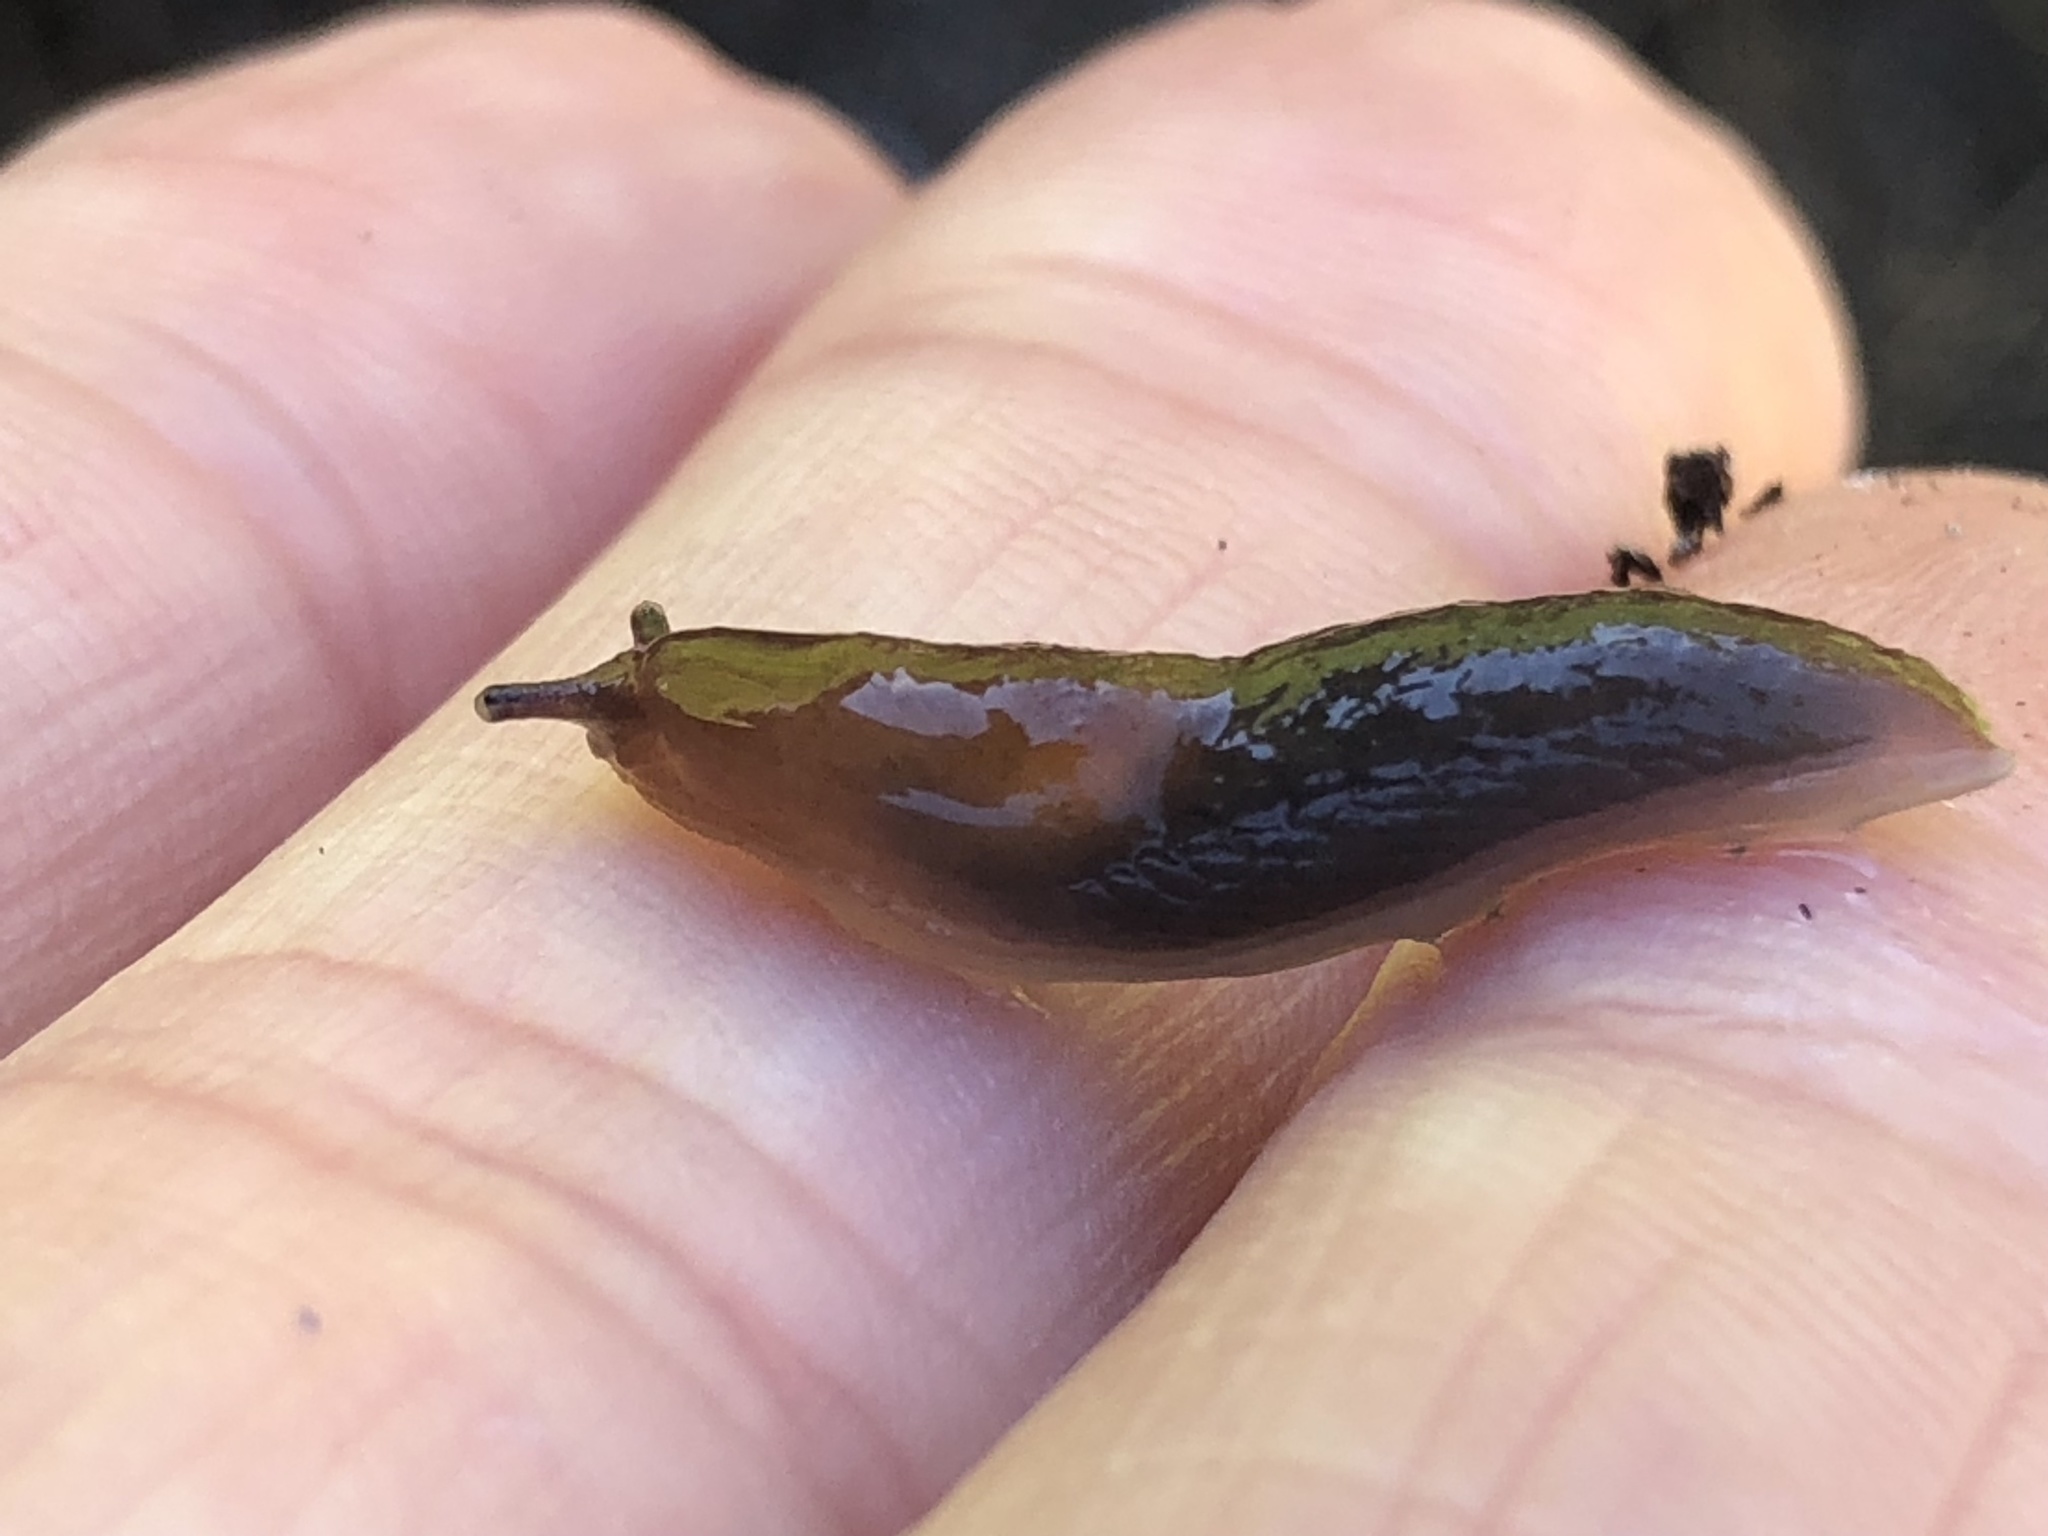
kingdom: Animalia
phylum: Mollusca
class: Gastropoda
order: Stylommatophora
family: Agriolimacidae
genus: Deroceras
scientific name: Deroceras laeve
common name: Marsh slug
